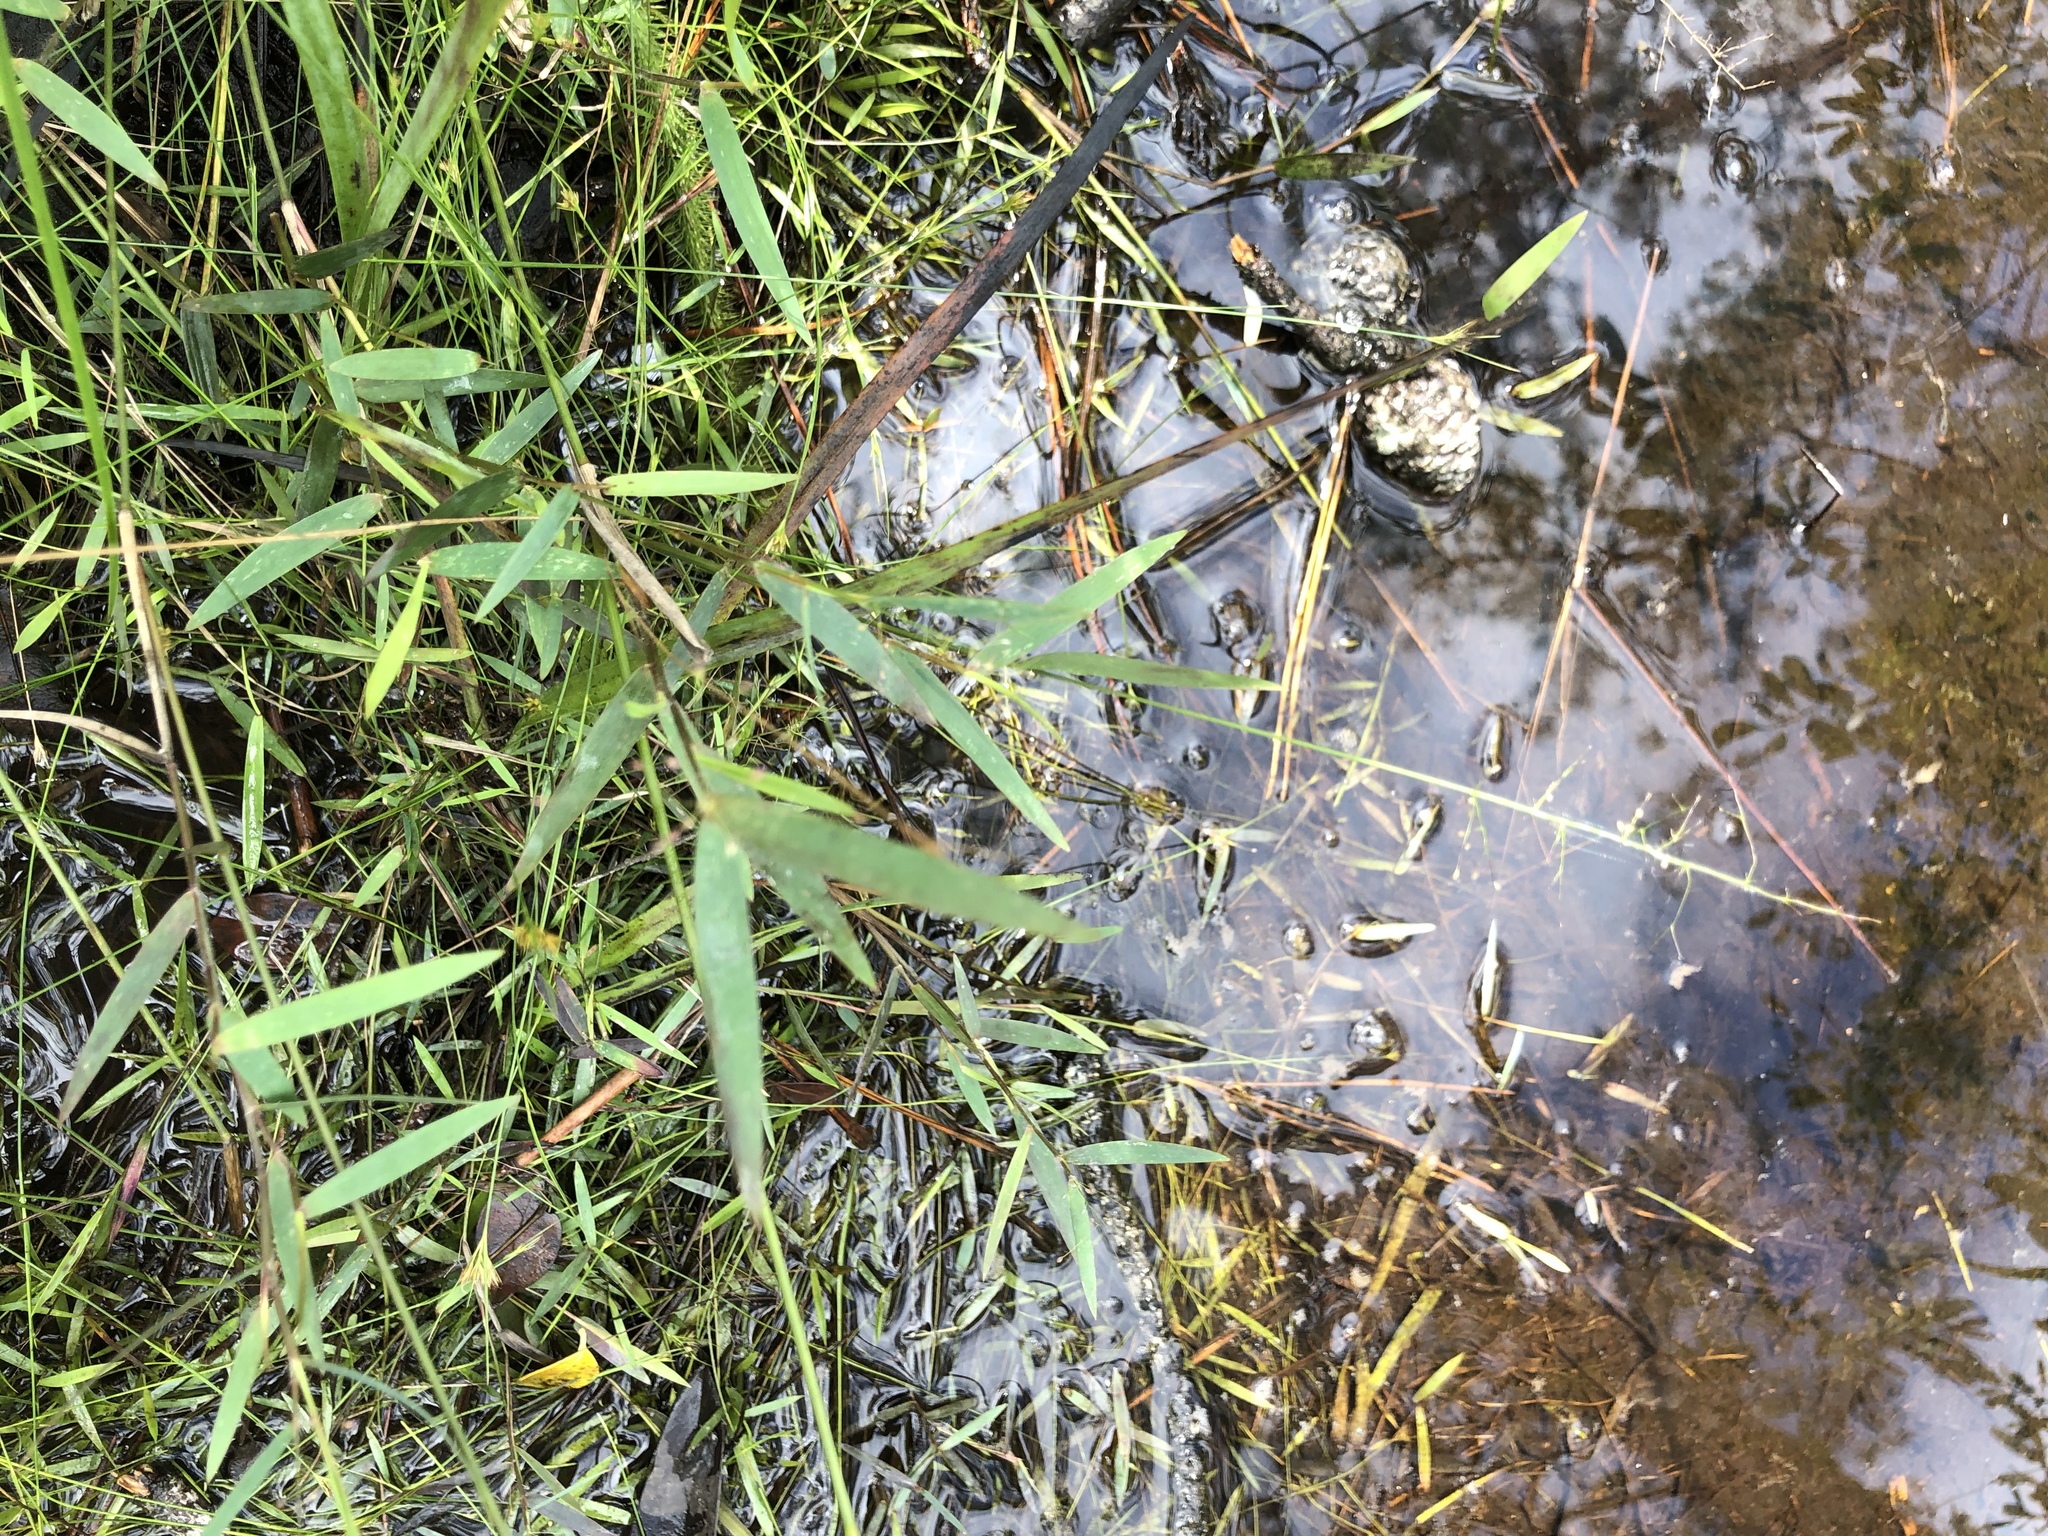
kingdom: Plantae
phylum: Tracheophyta
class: Liliopsida
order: Poales
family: Poaceae
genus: Dichanthelium
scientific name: Dichanthelium longiligulatum
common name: Long-ligule panicgrass
